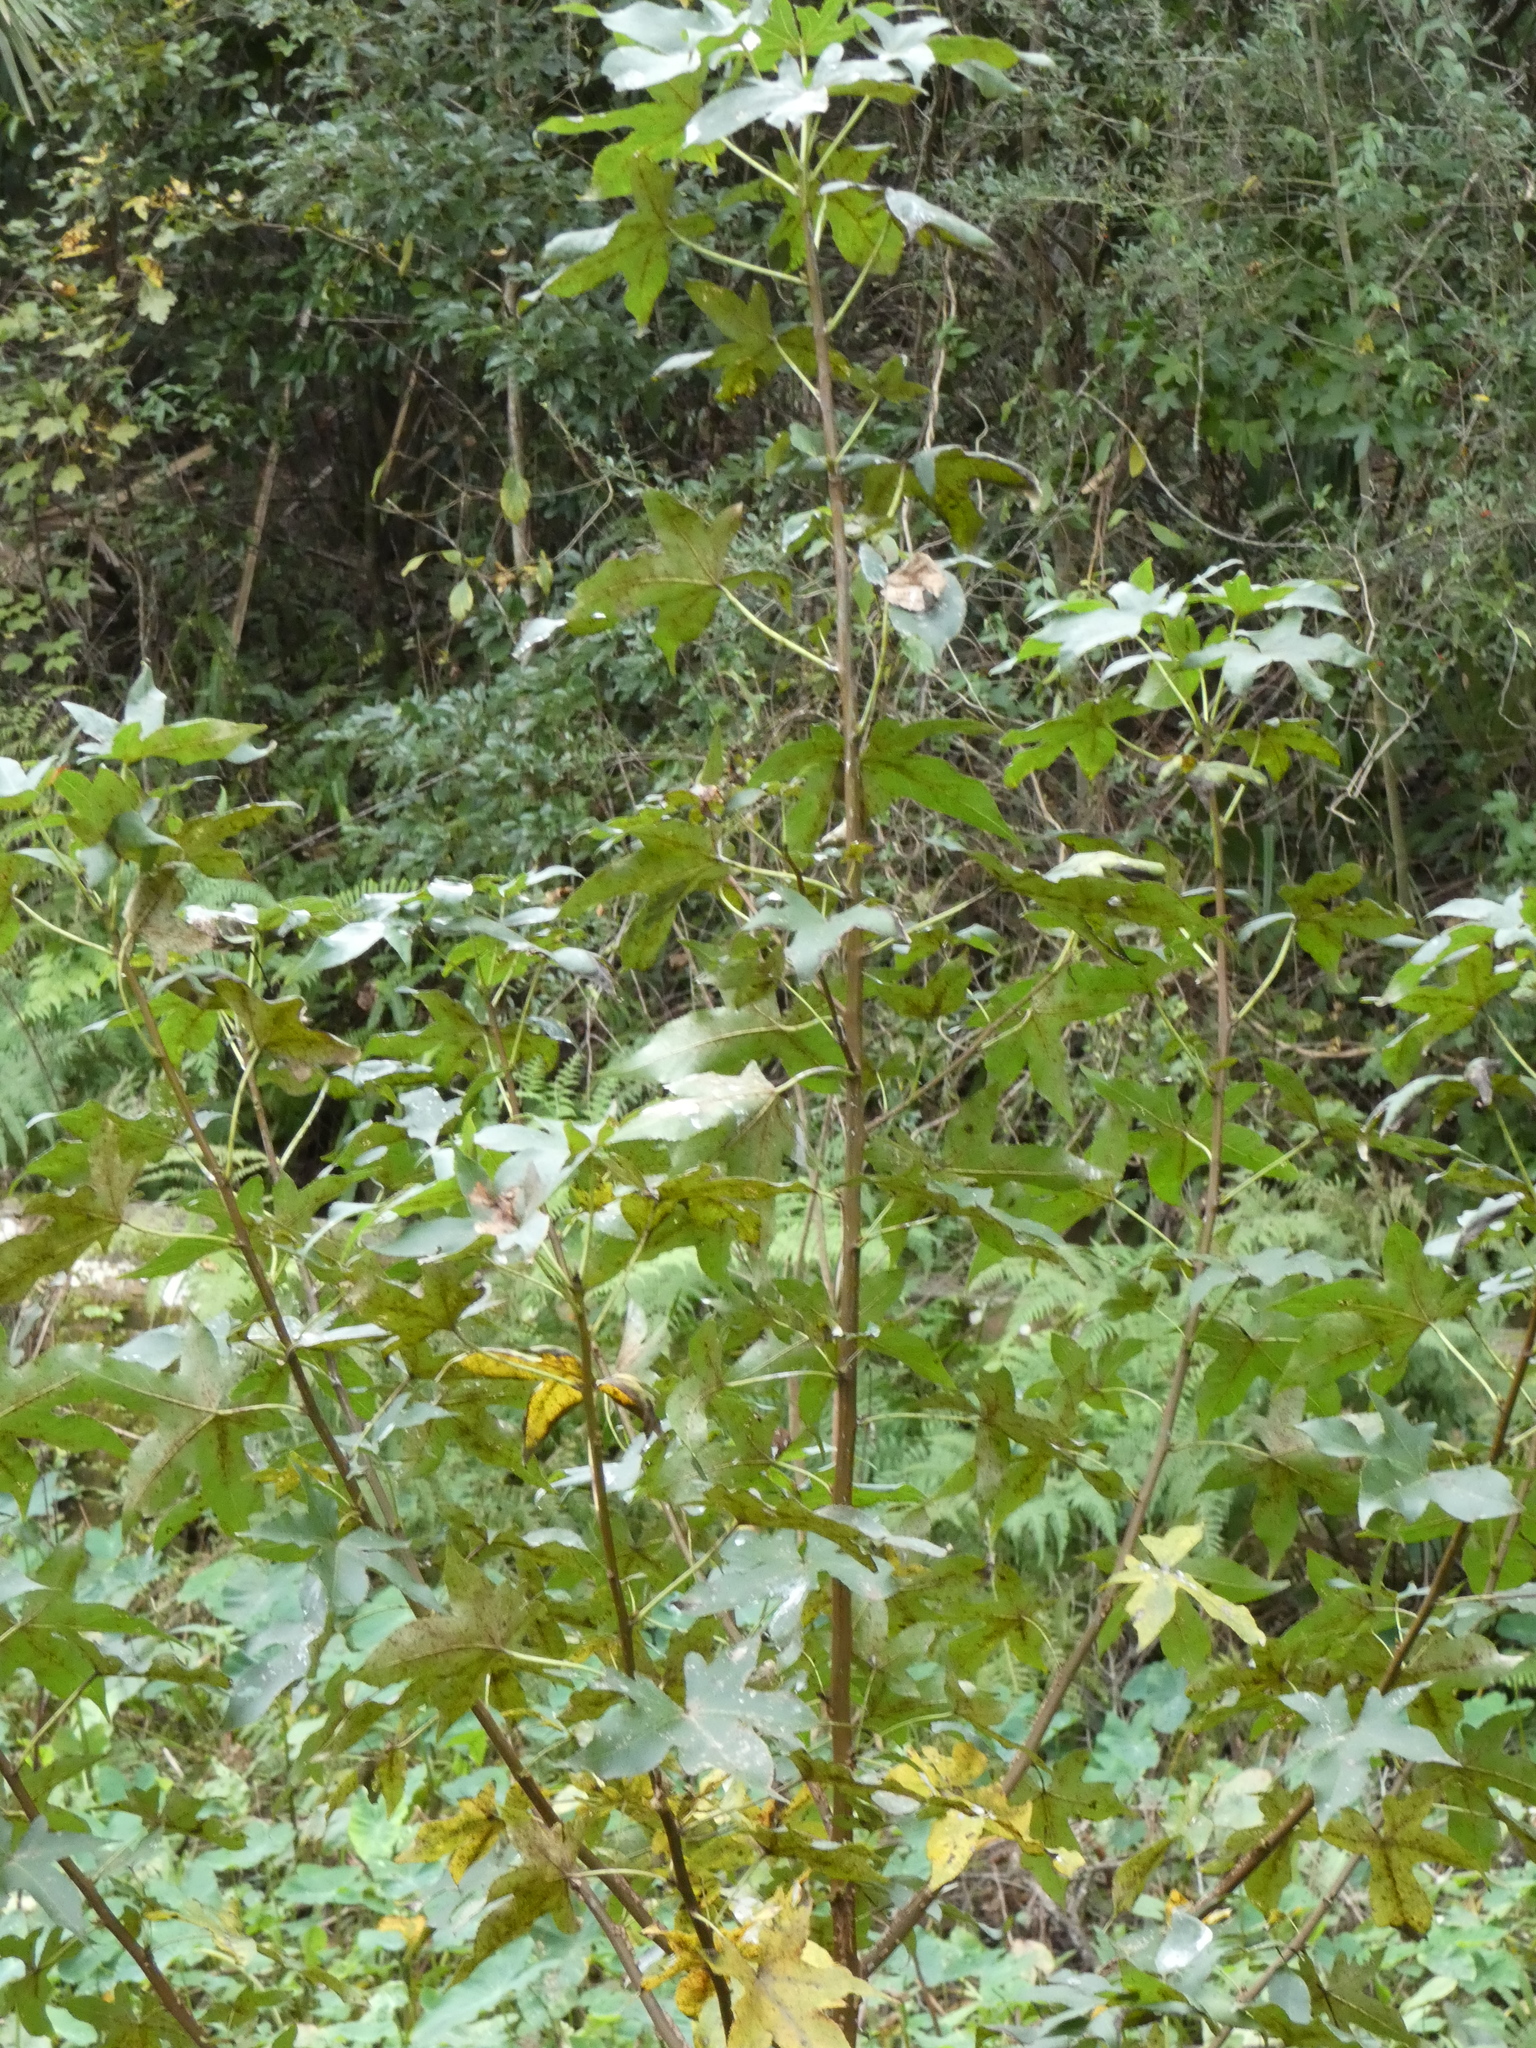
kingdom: Plantae
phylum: Tracheophyta
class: Magnoliopsida
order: Saxifragales
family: Altingiaceae
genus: Liquidambar
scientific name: Liquidambar styraciflua
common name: Sweet gum
